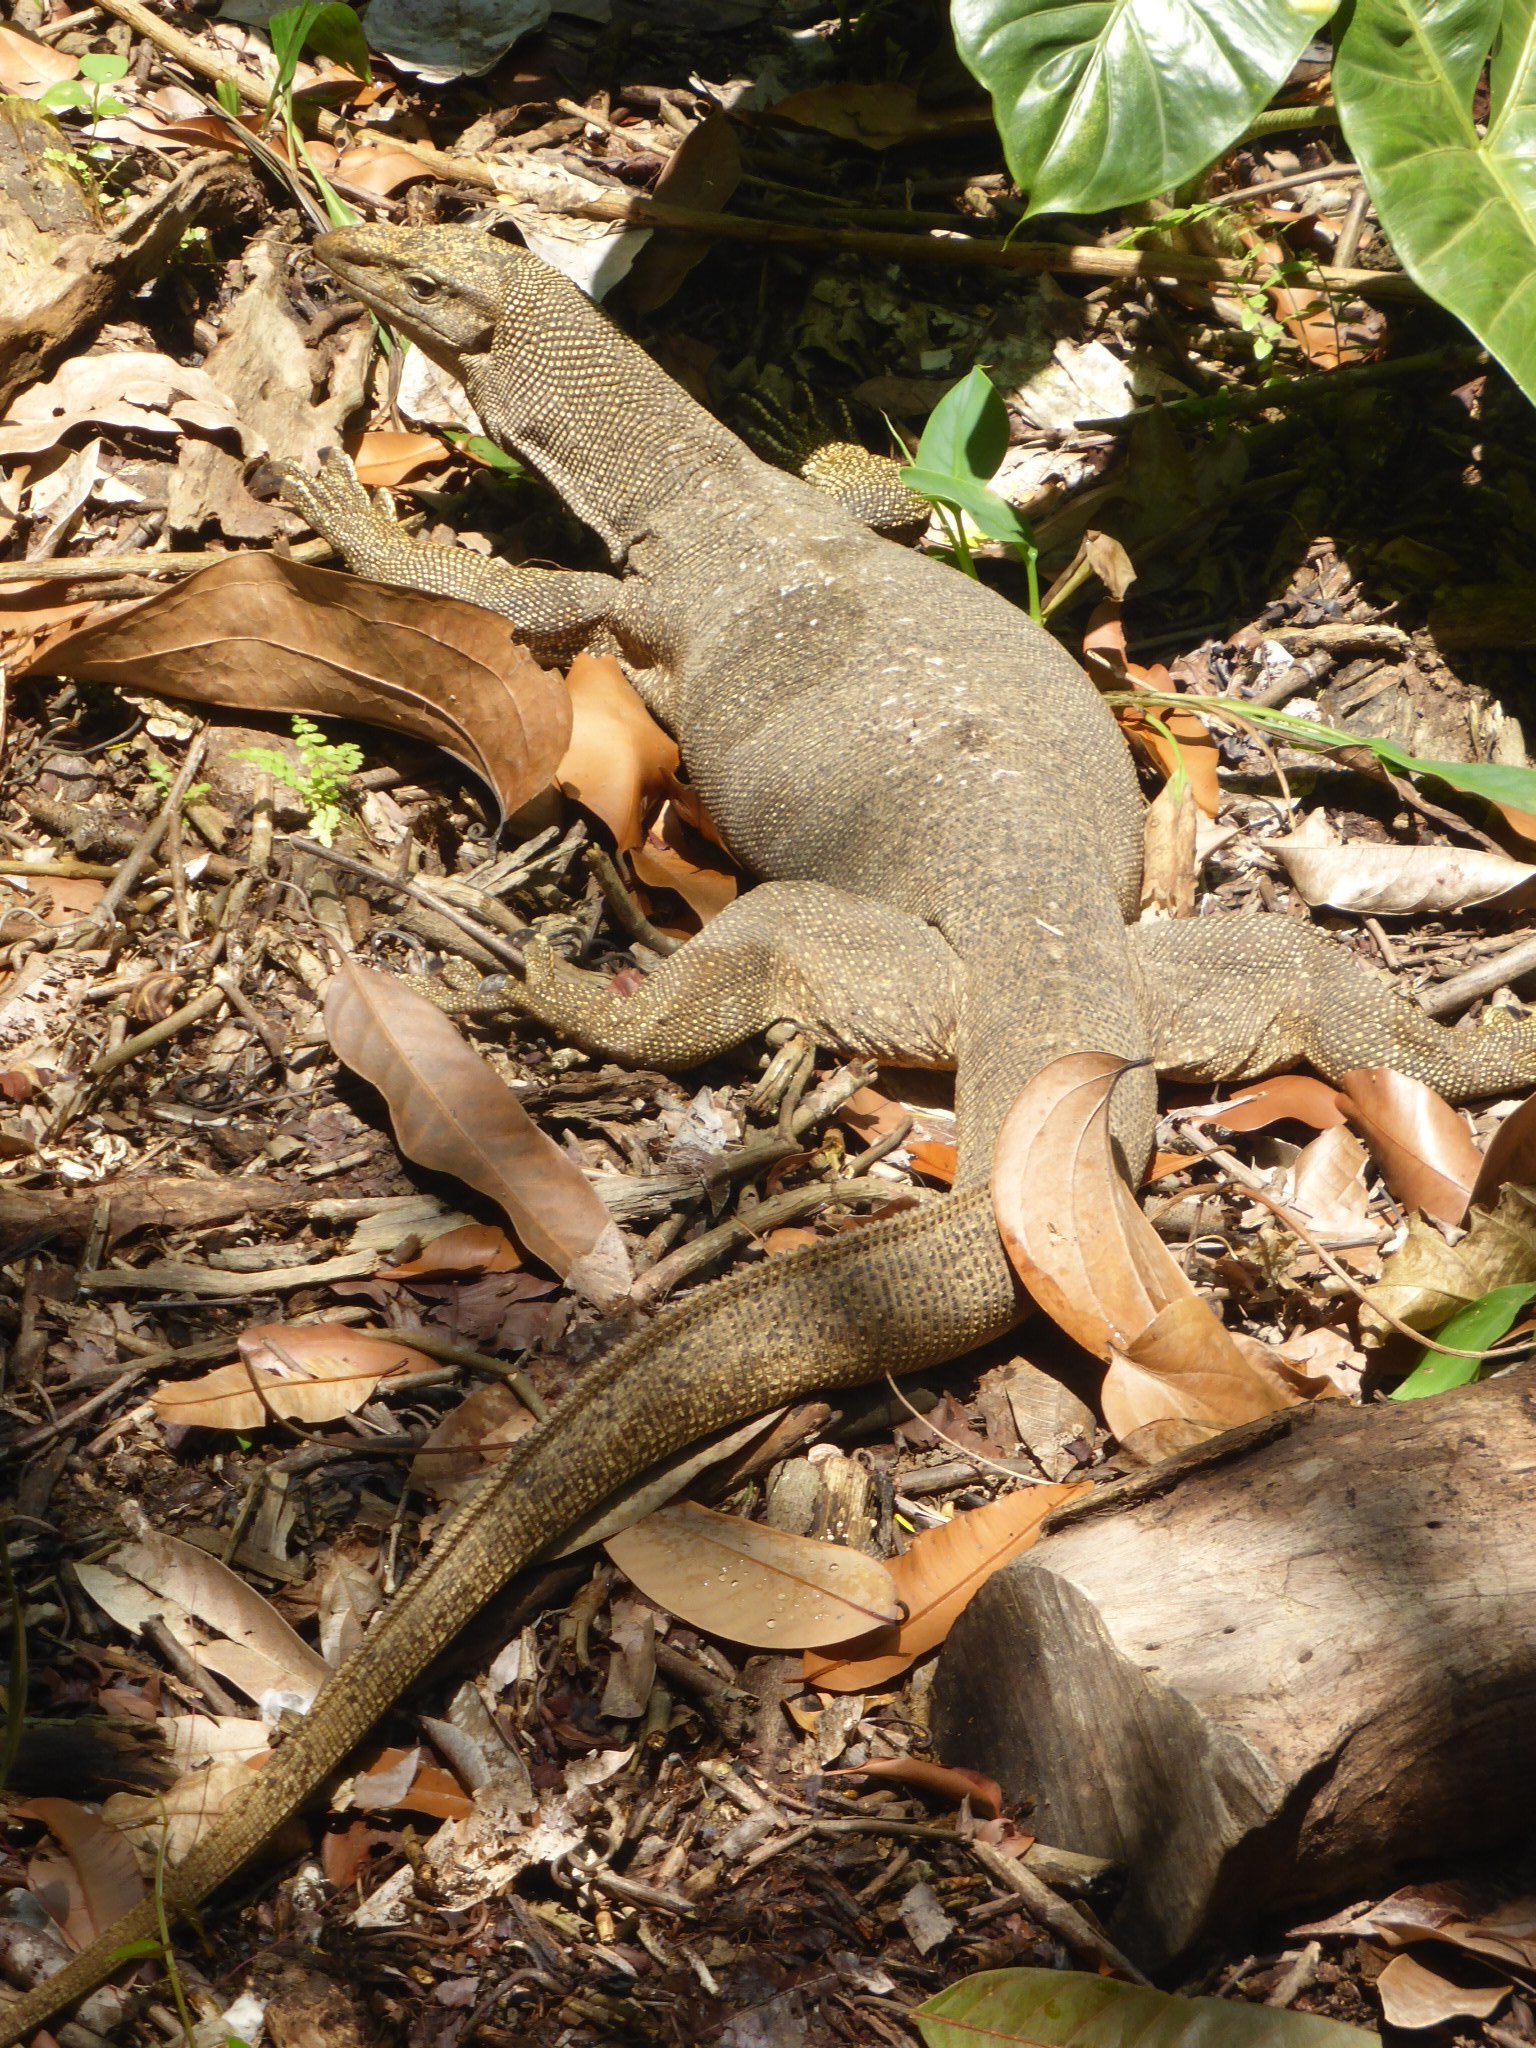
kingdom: Animalia
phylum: Chordata
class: Squamata
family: Varanidae
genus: Varanus
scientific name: Varanus nebulosus
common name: Clouded monitor
